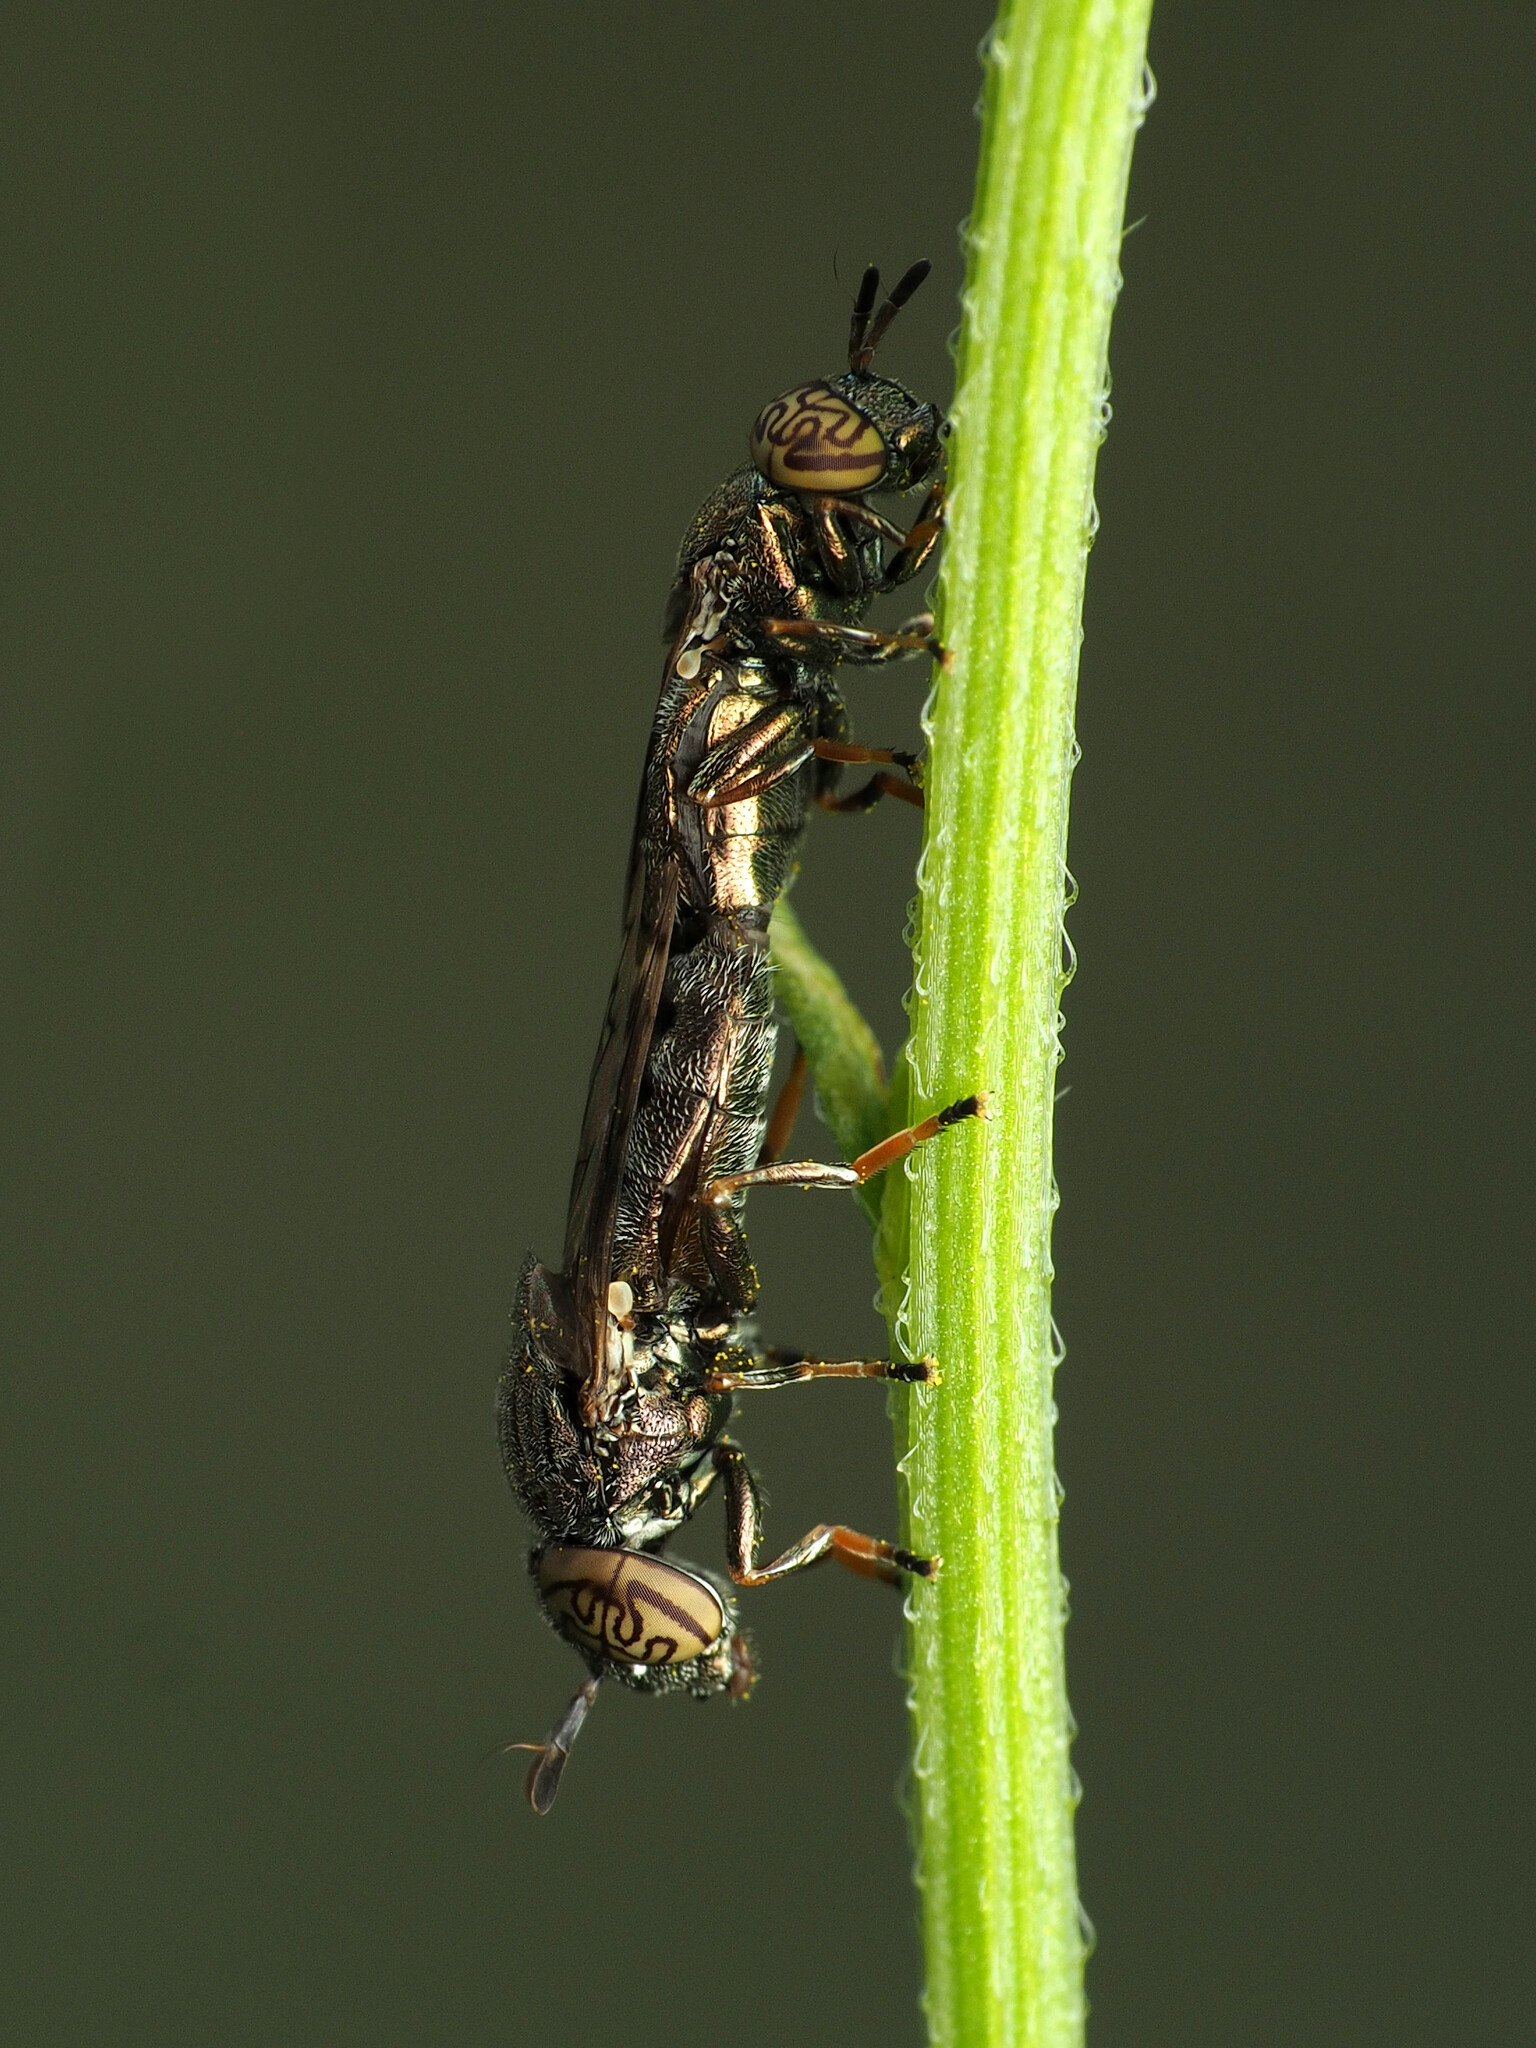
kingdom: Animalia
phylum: Arthropoda
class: Insecta
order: Diptera
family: Syrphidae
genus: Orthonevra
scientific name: Orthonevra nitida
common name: Wavy mucksucker
